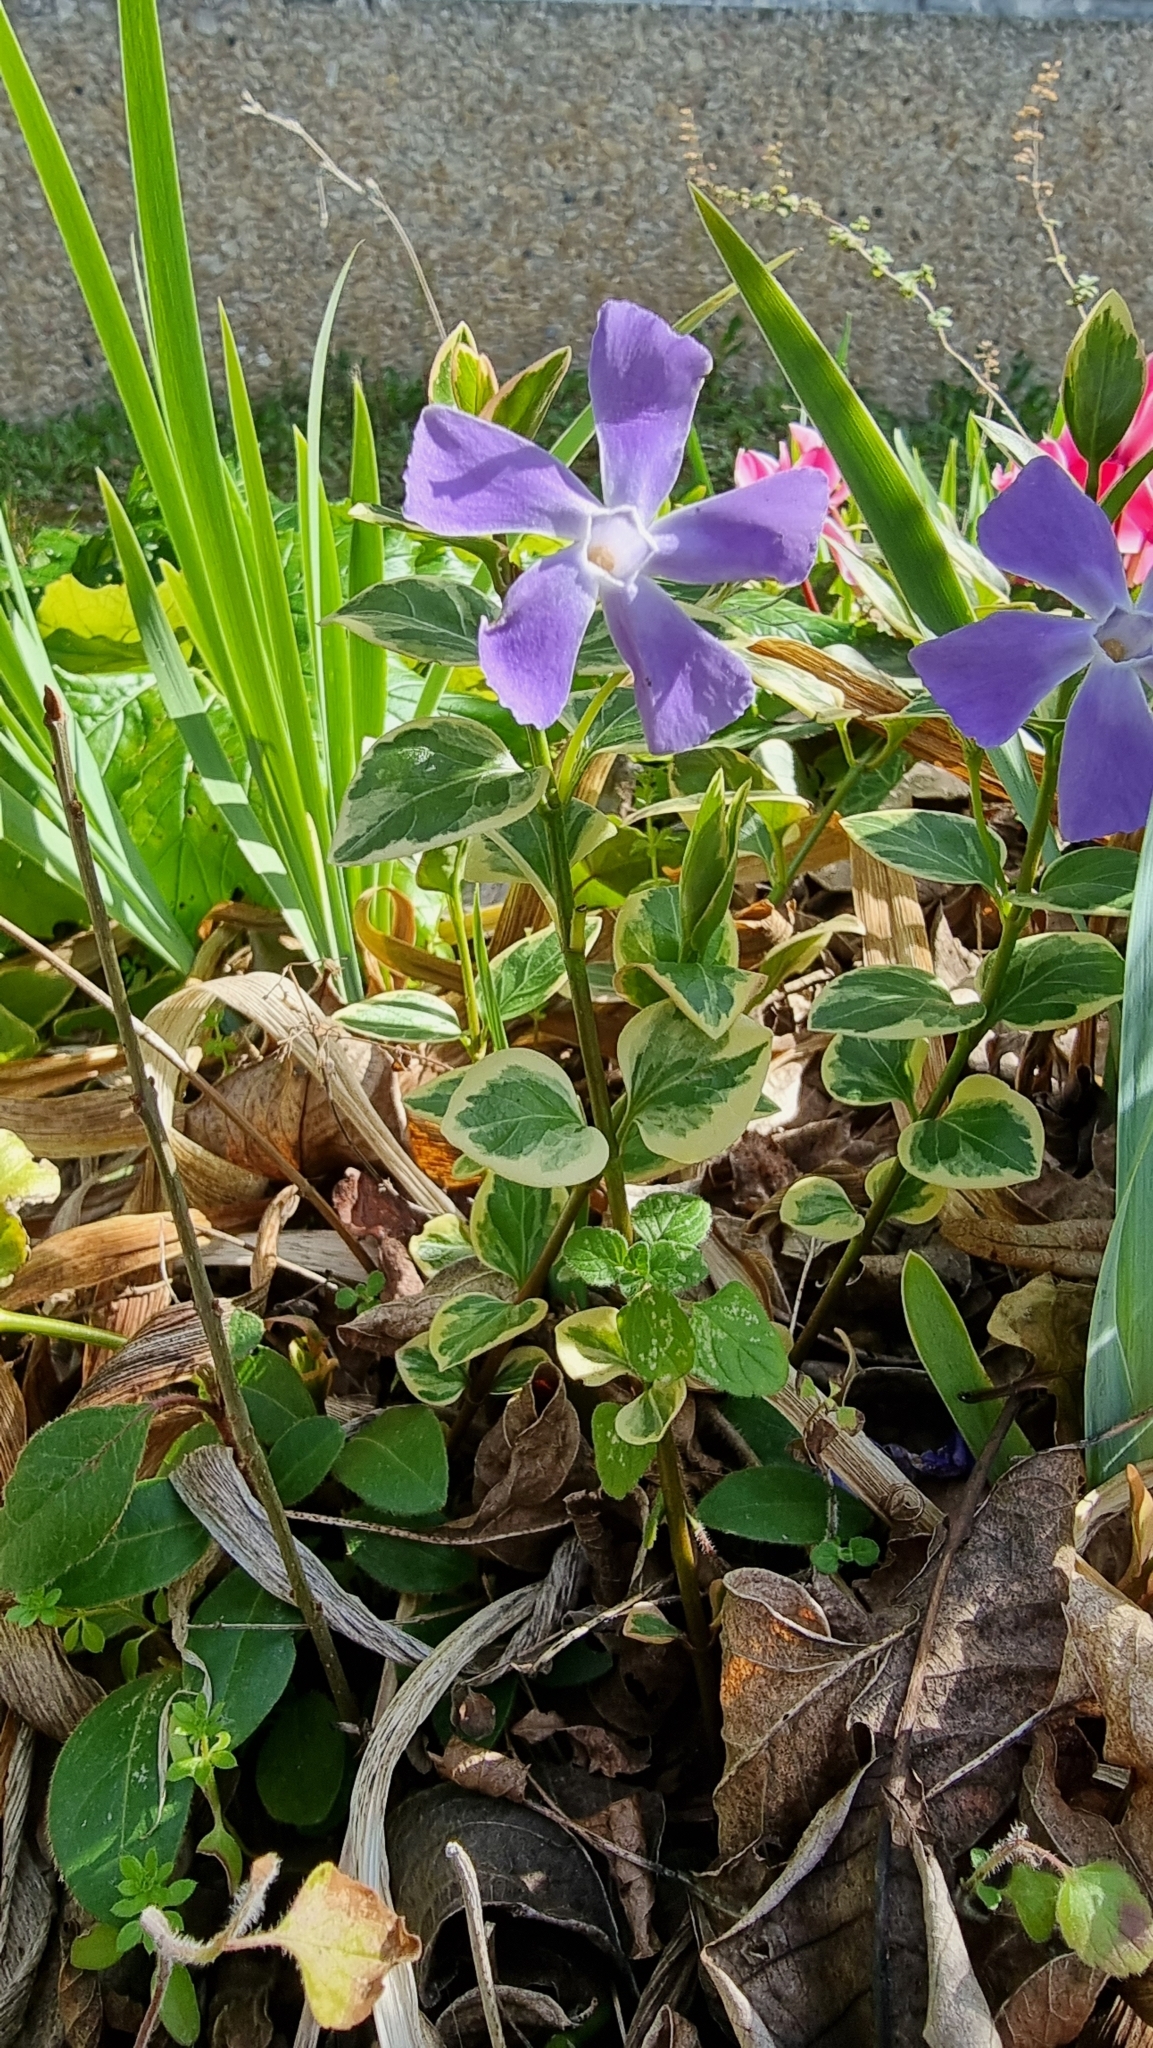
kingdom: Plantae
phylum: Tracheophyta
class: Magnoliopsida
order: Gentianales
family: Apocynaceae
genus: Vinca
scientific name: Vinca major
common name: Greater periwinkle
